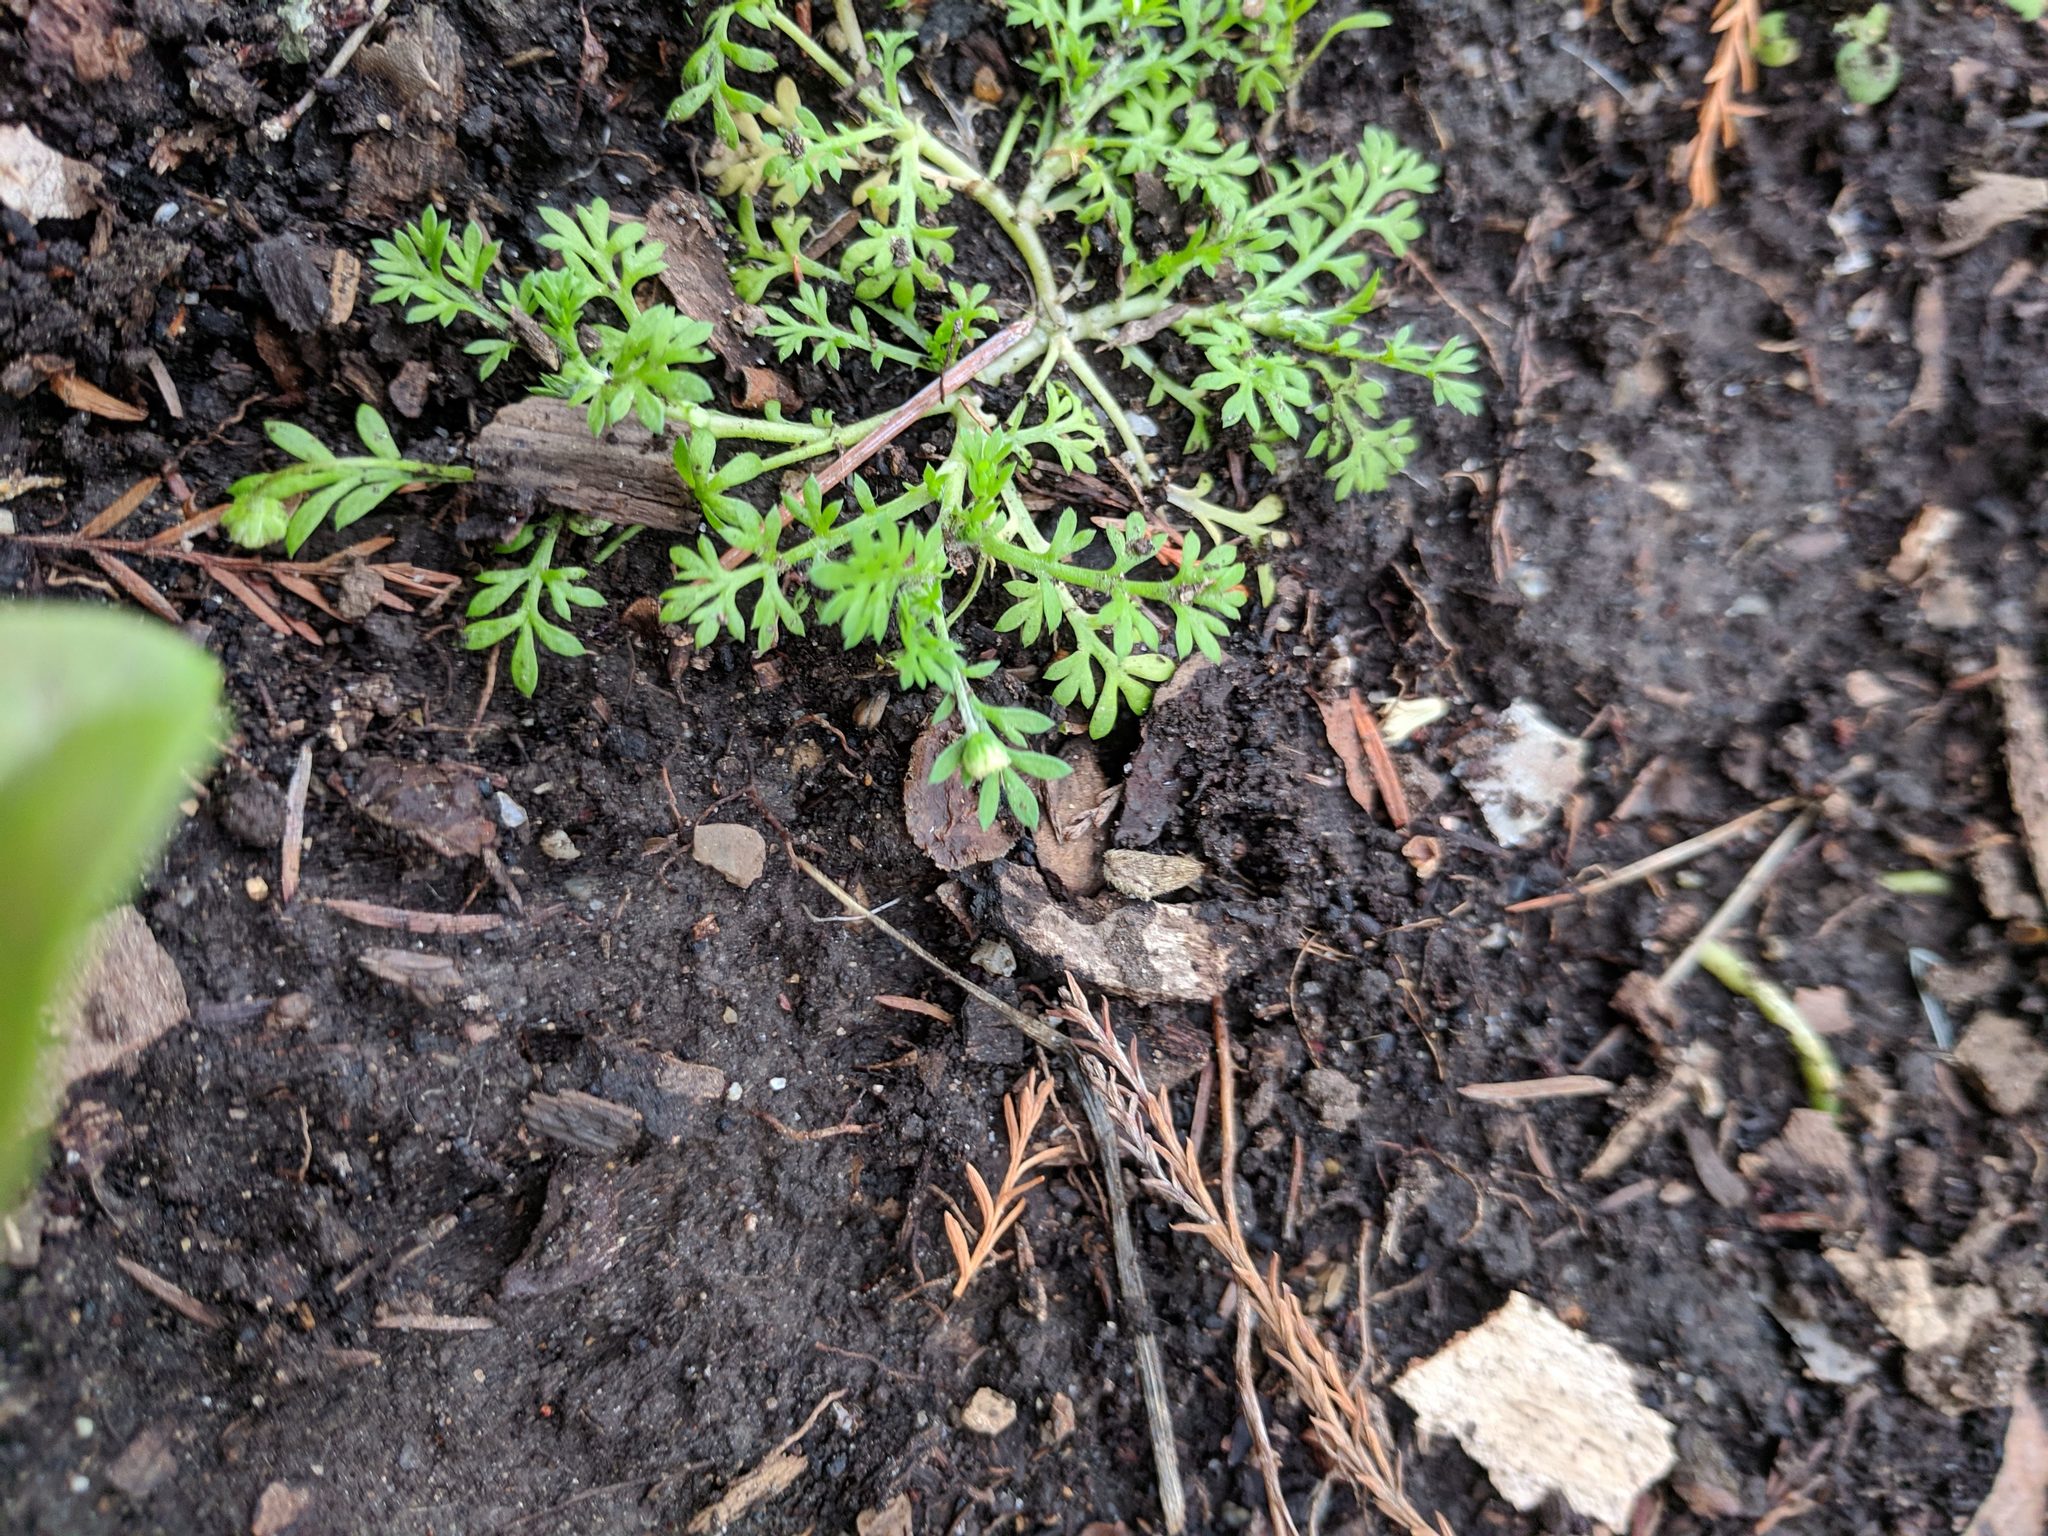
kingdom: Plantae
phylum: Tracheophyta
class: Magnoliopsida
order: Asterales
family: Asteraceae
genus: Cotula
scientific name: Cotula australis
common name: Australian waterbuttons
